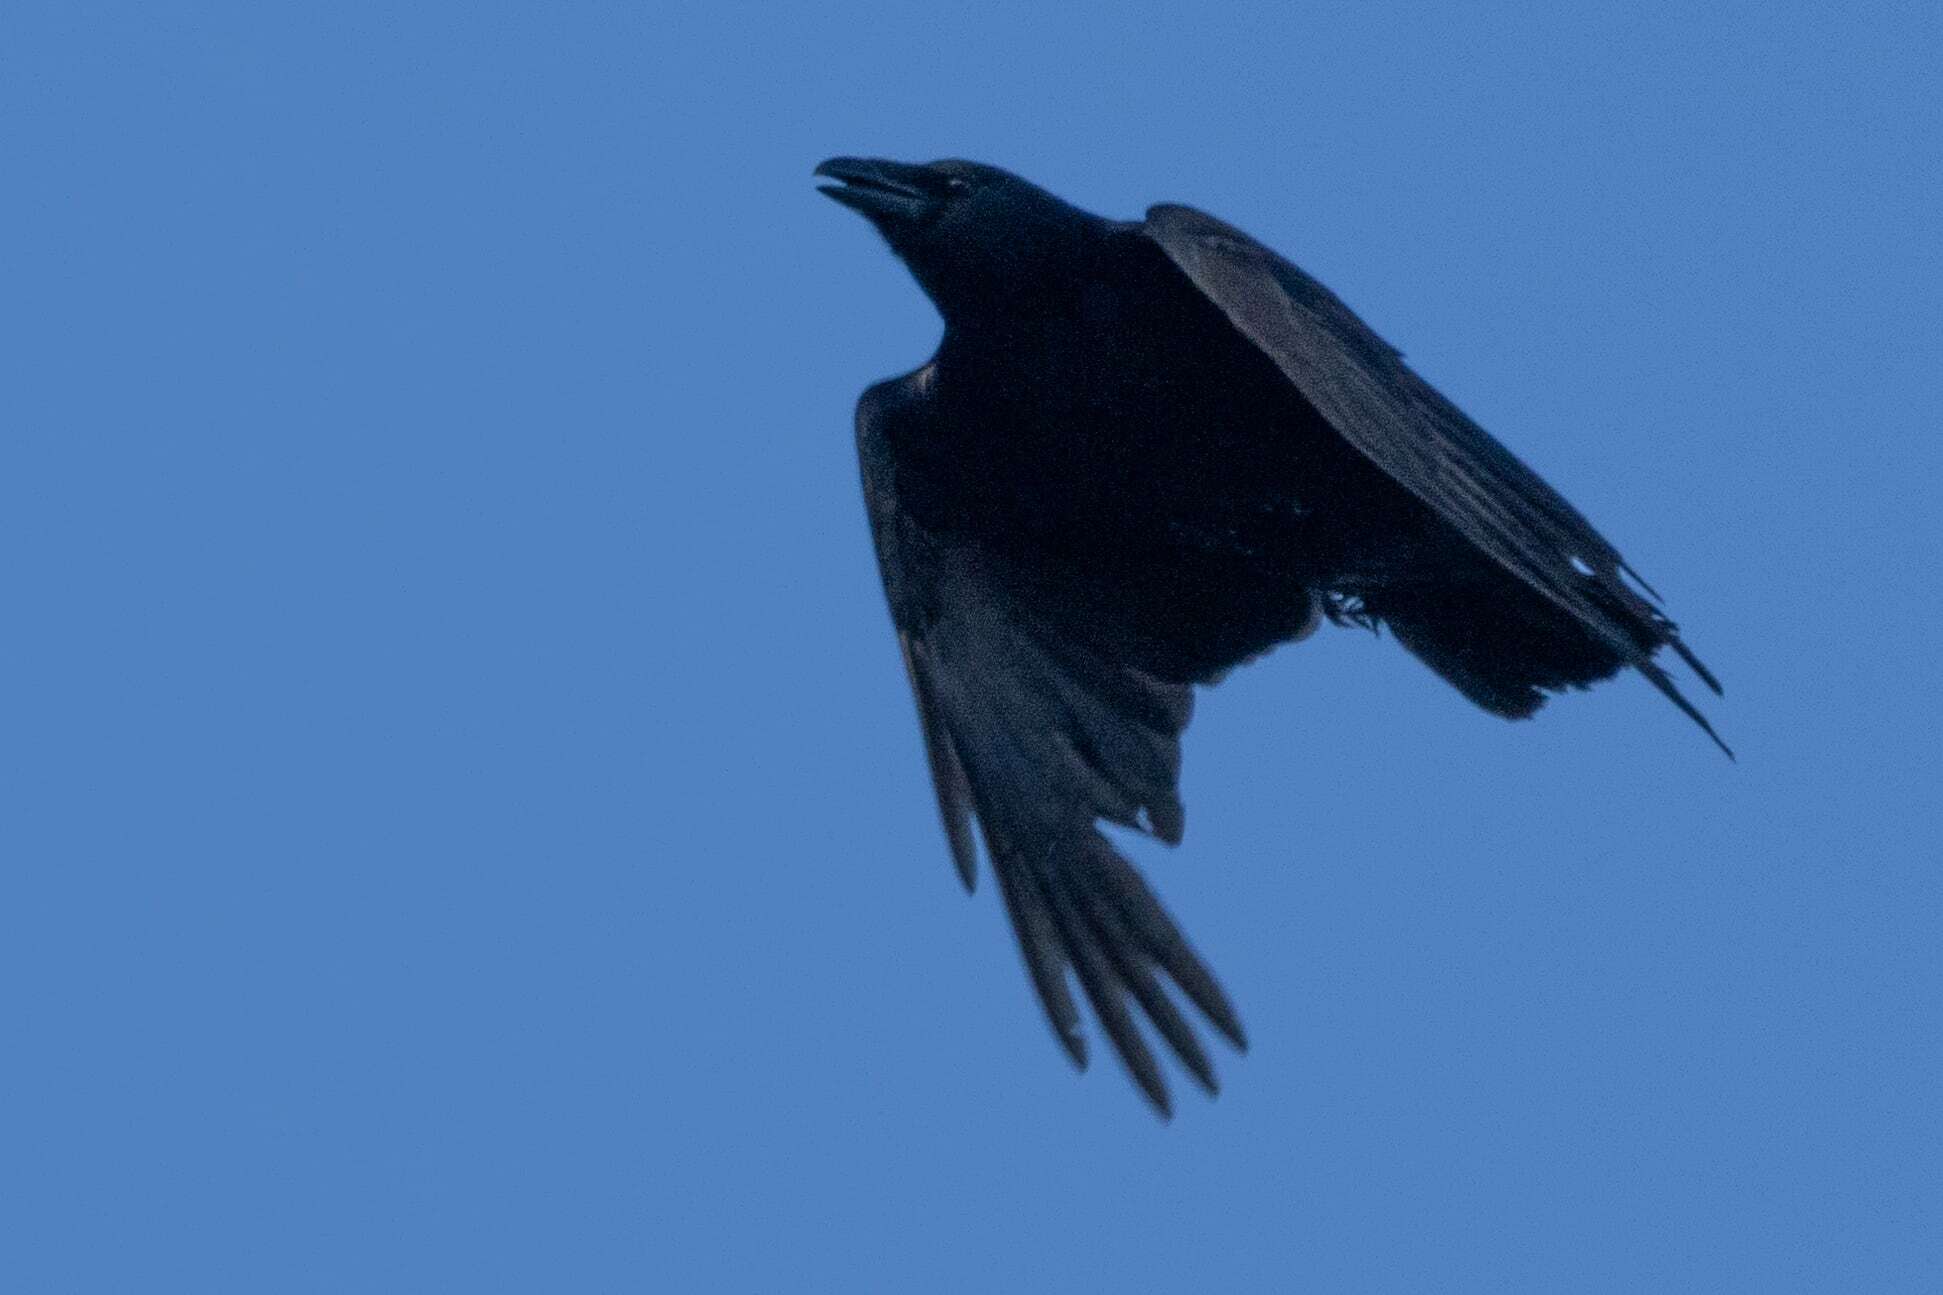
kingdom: Animalia
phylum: Chordata
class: Aves
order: Passeriformes
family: Corvidae
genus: Corvus
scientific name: Corvus corone
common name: Carrion crow
